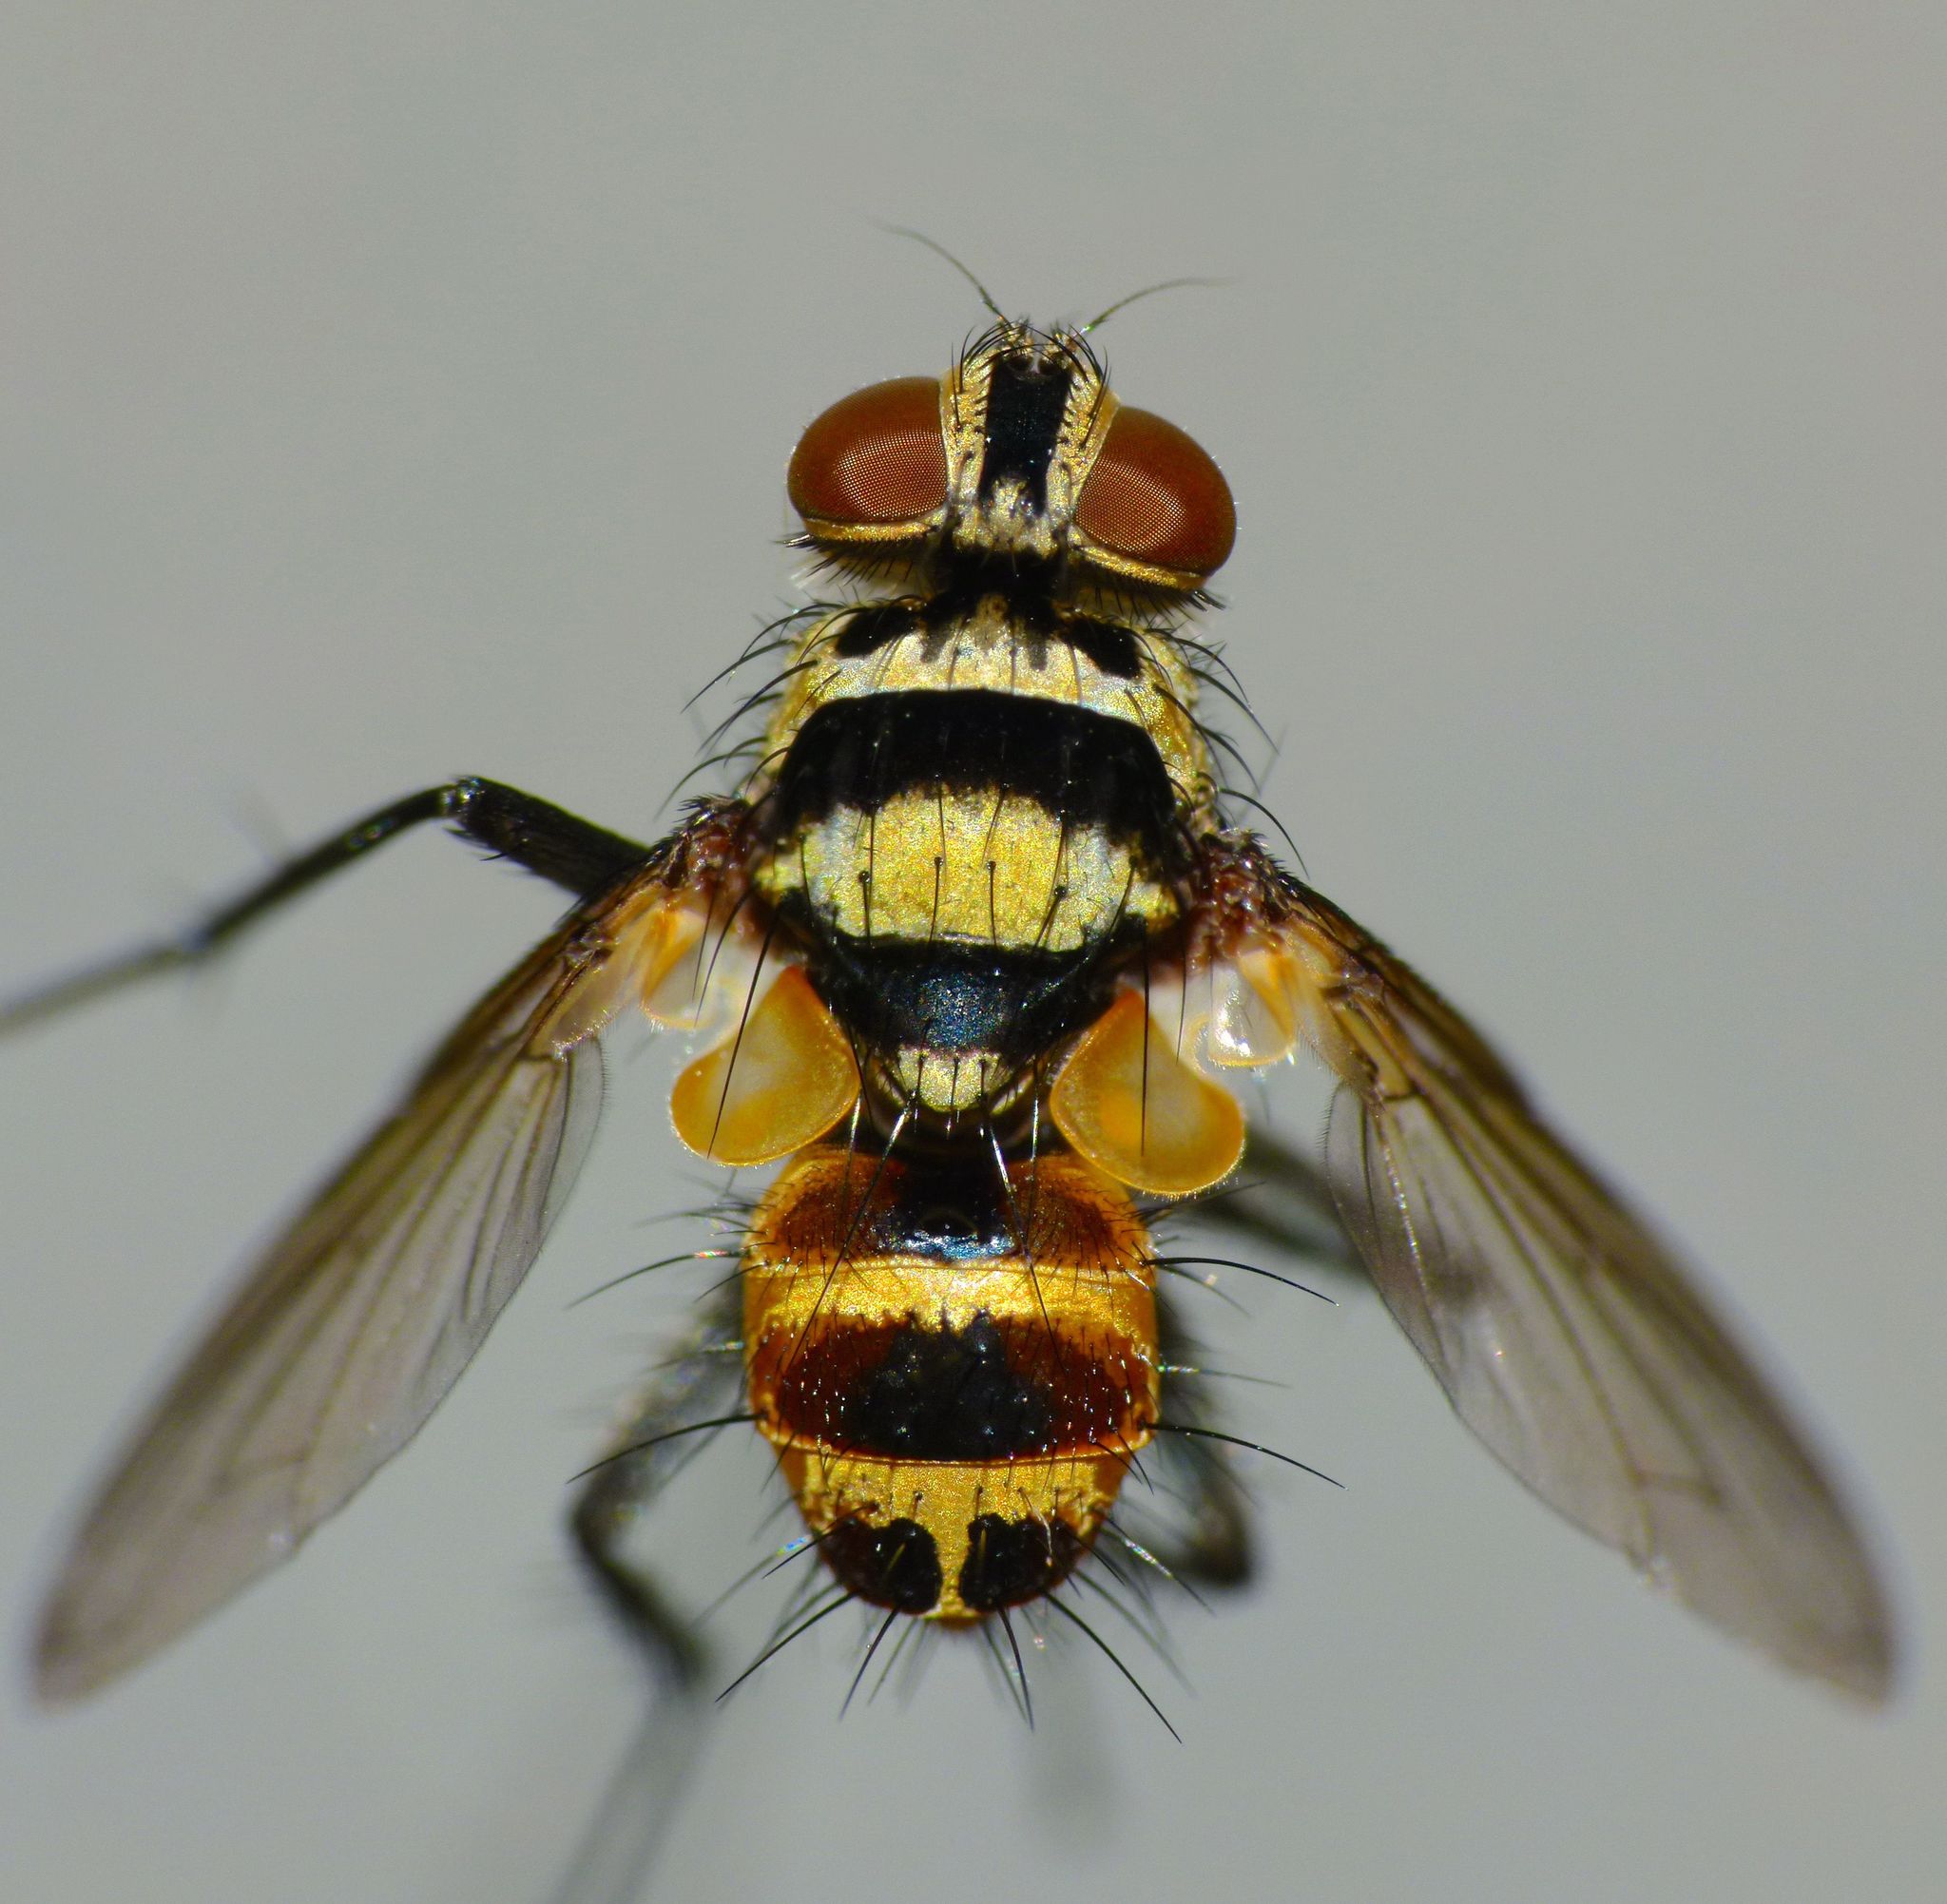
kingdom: Animalia
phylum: Arthropoda
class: Insecta
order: Diptera
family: Tachinidae
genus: Trigonospila
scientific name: Trigonospila brevifacies
